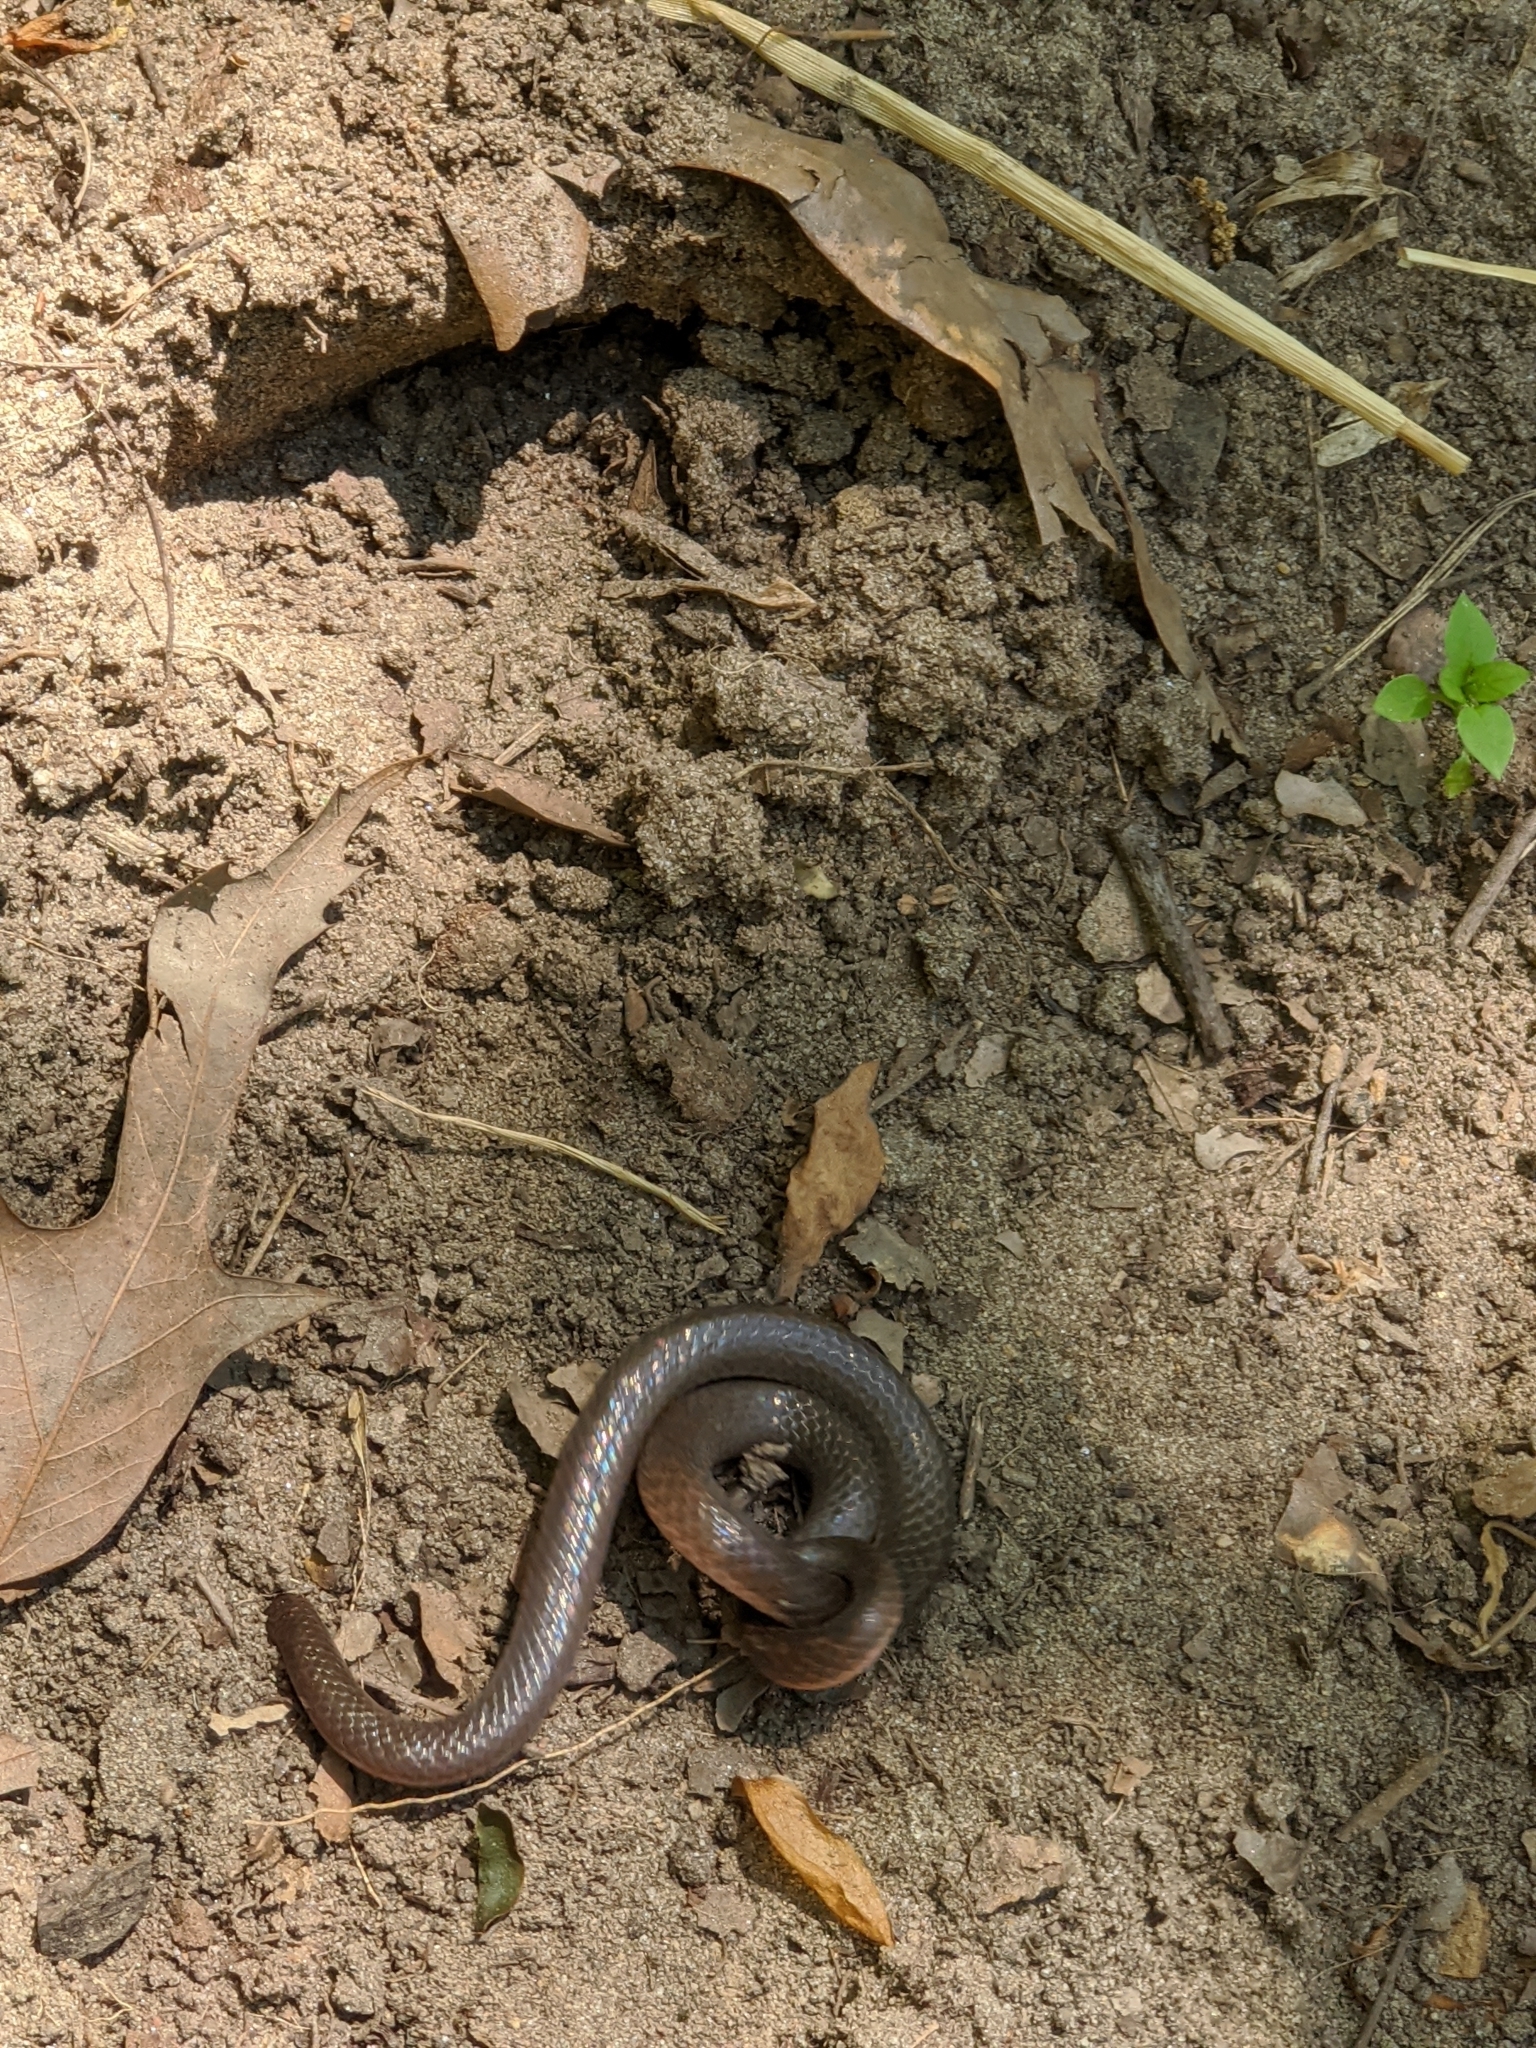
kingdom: Animalia
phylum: Chordata
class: Squamata
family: Colubridae
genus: Carphophis
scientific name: Carphophis amoenus
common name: Eastern worm snake
